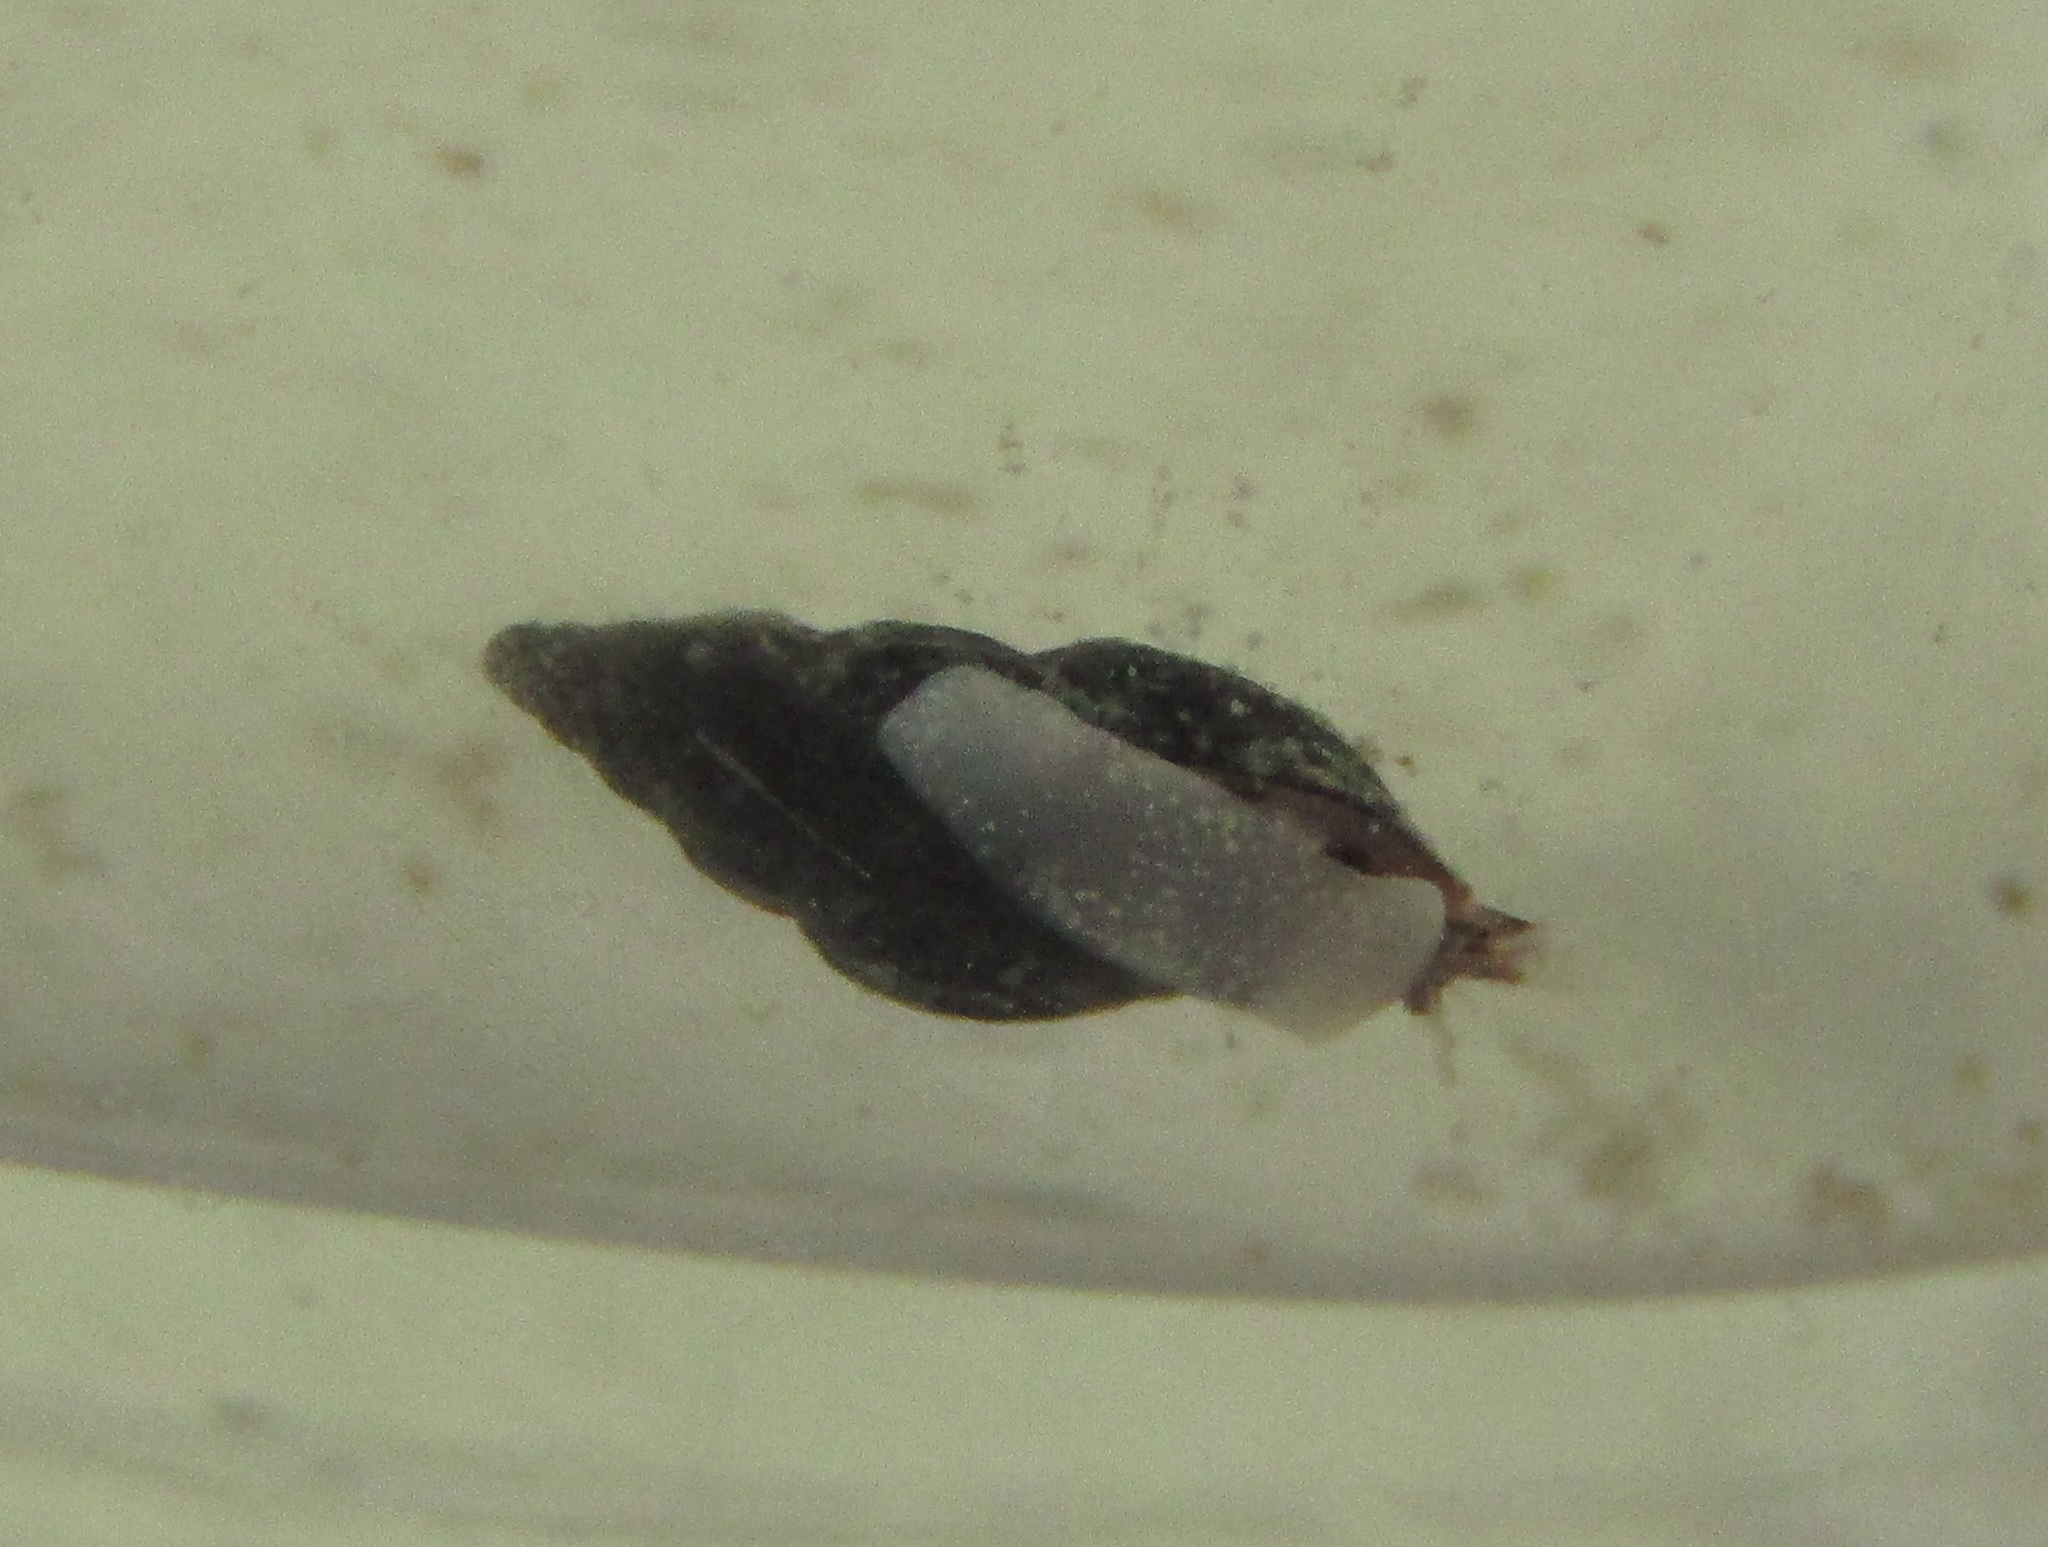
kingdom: Animalia
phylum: Mollusca
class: Gastropoda
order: Neogastropoda
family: Costellariidae
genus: Austromitra
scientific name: Austromitra rubiginosa
